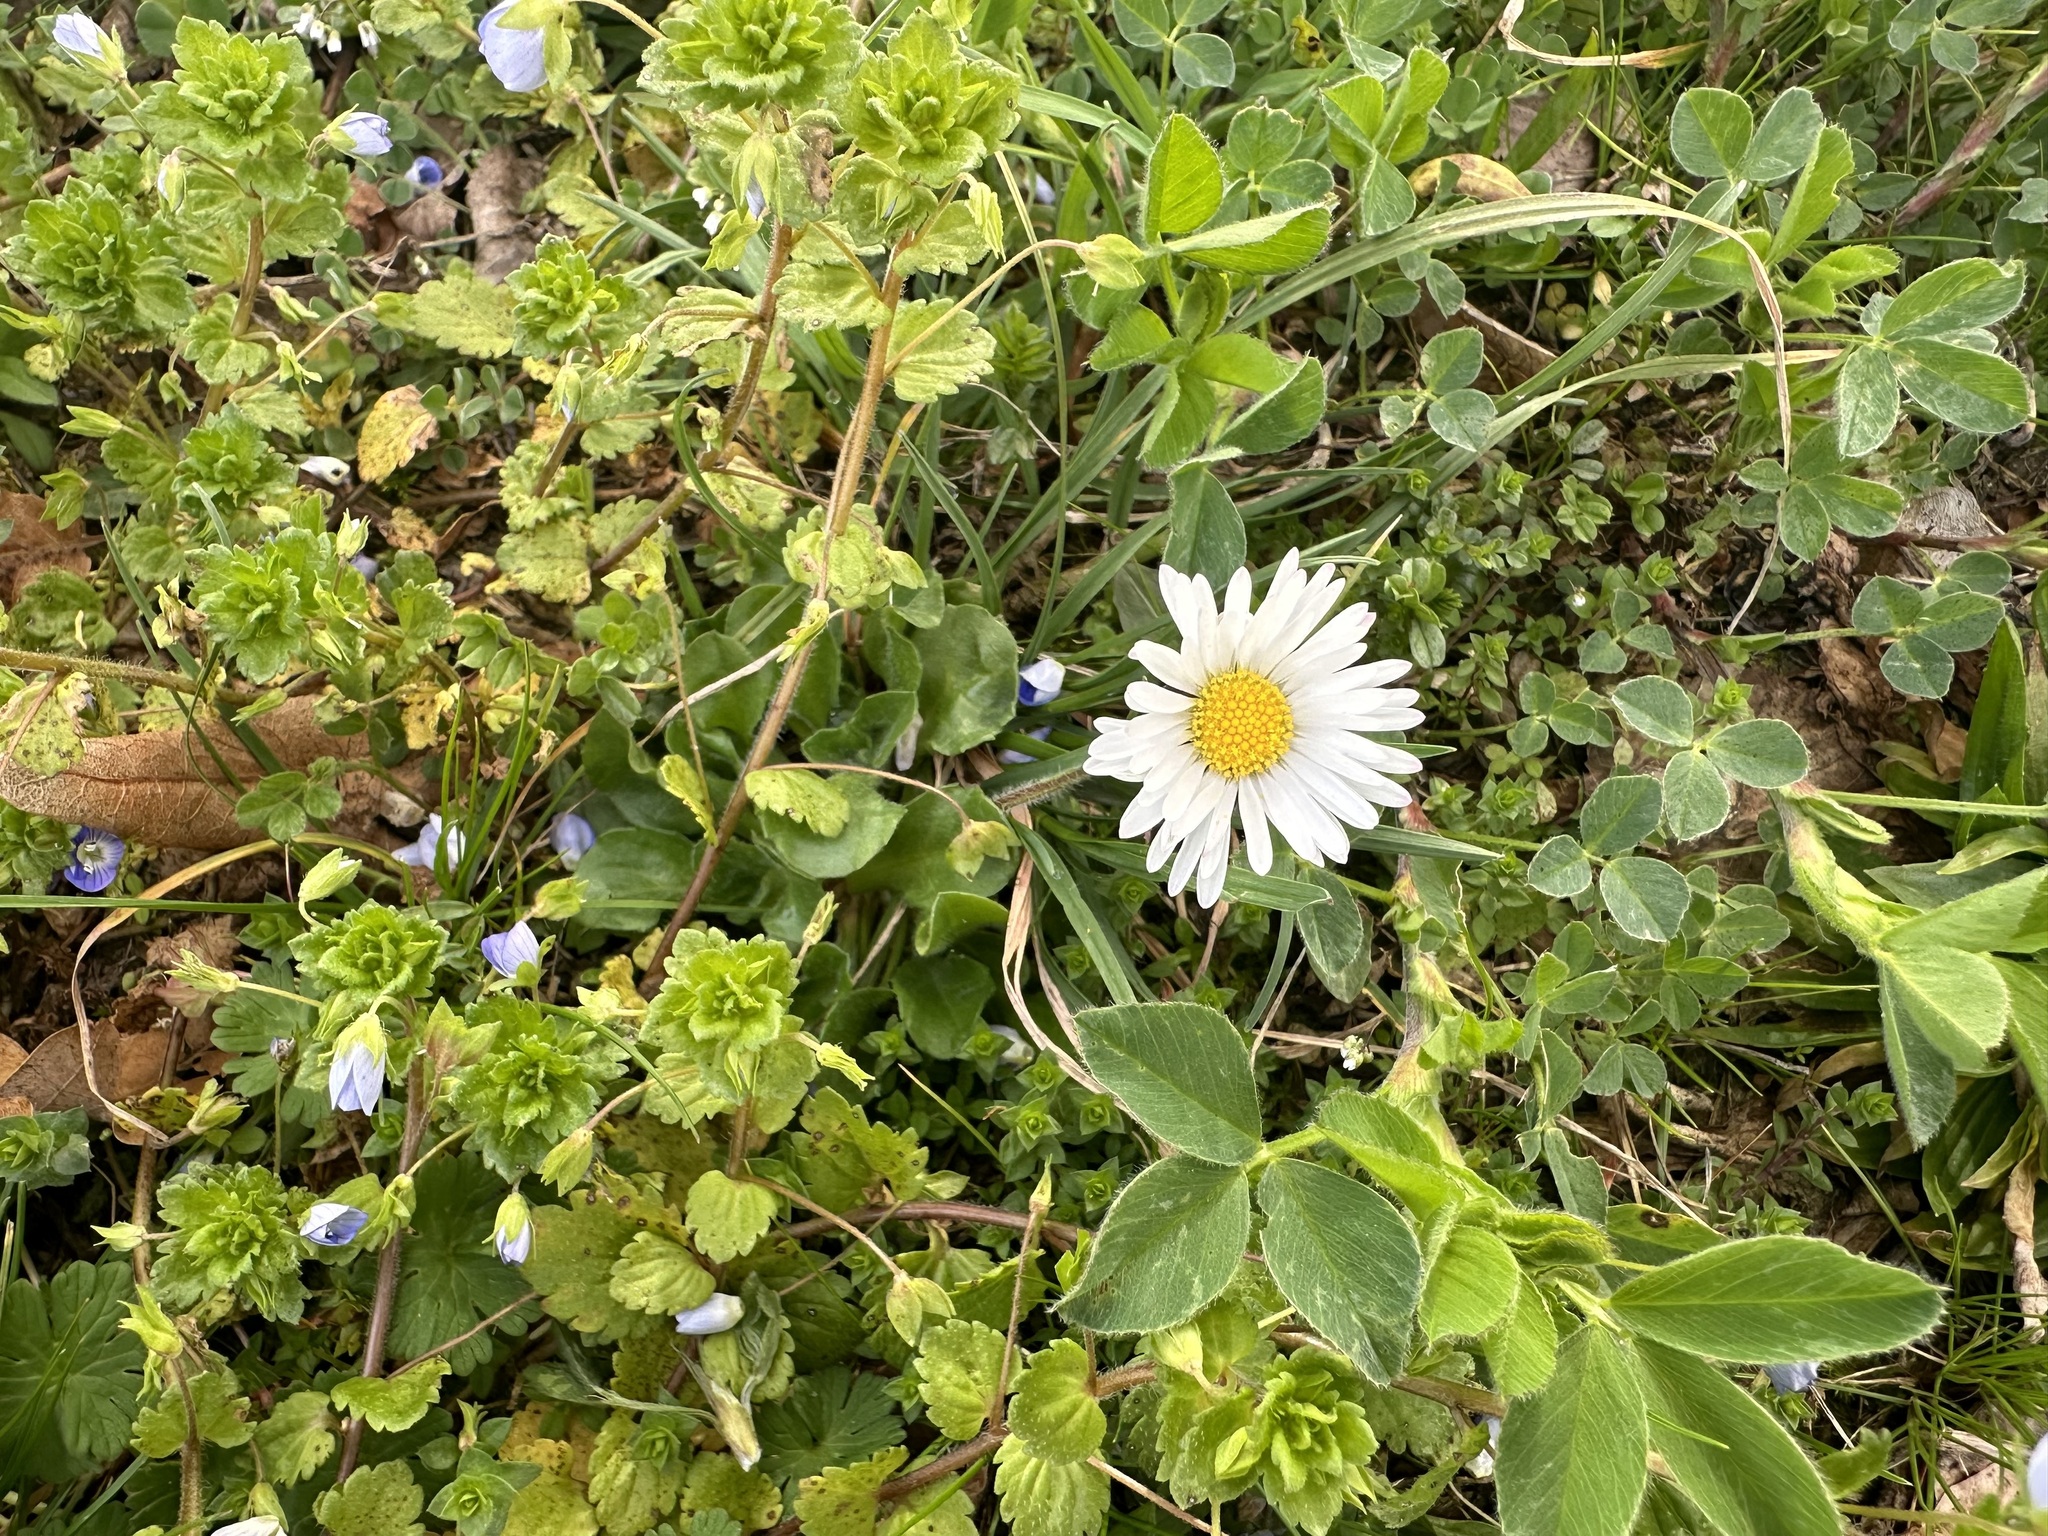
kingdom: Plantae
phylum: Tracheophyta
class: Magnoliopsida
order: Asterales
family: Asteraceae
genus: Bellis
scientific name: Bellis perennis
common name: Lawndaisy
